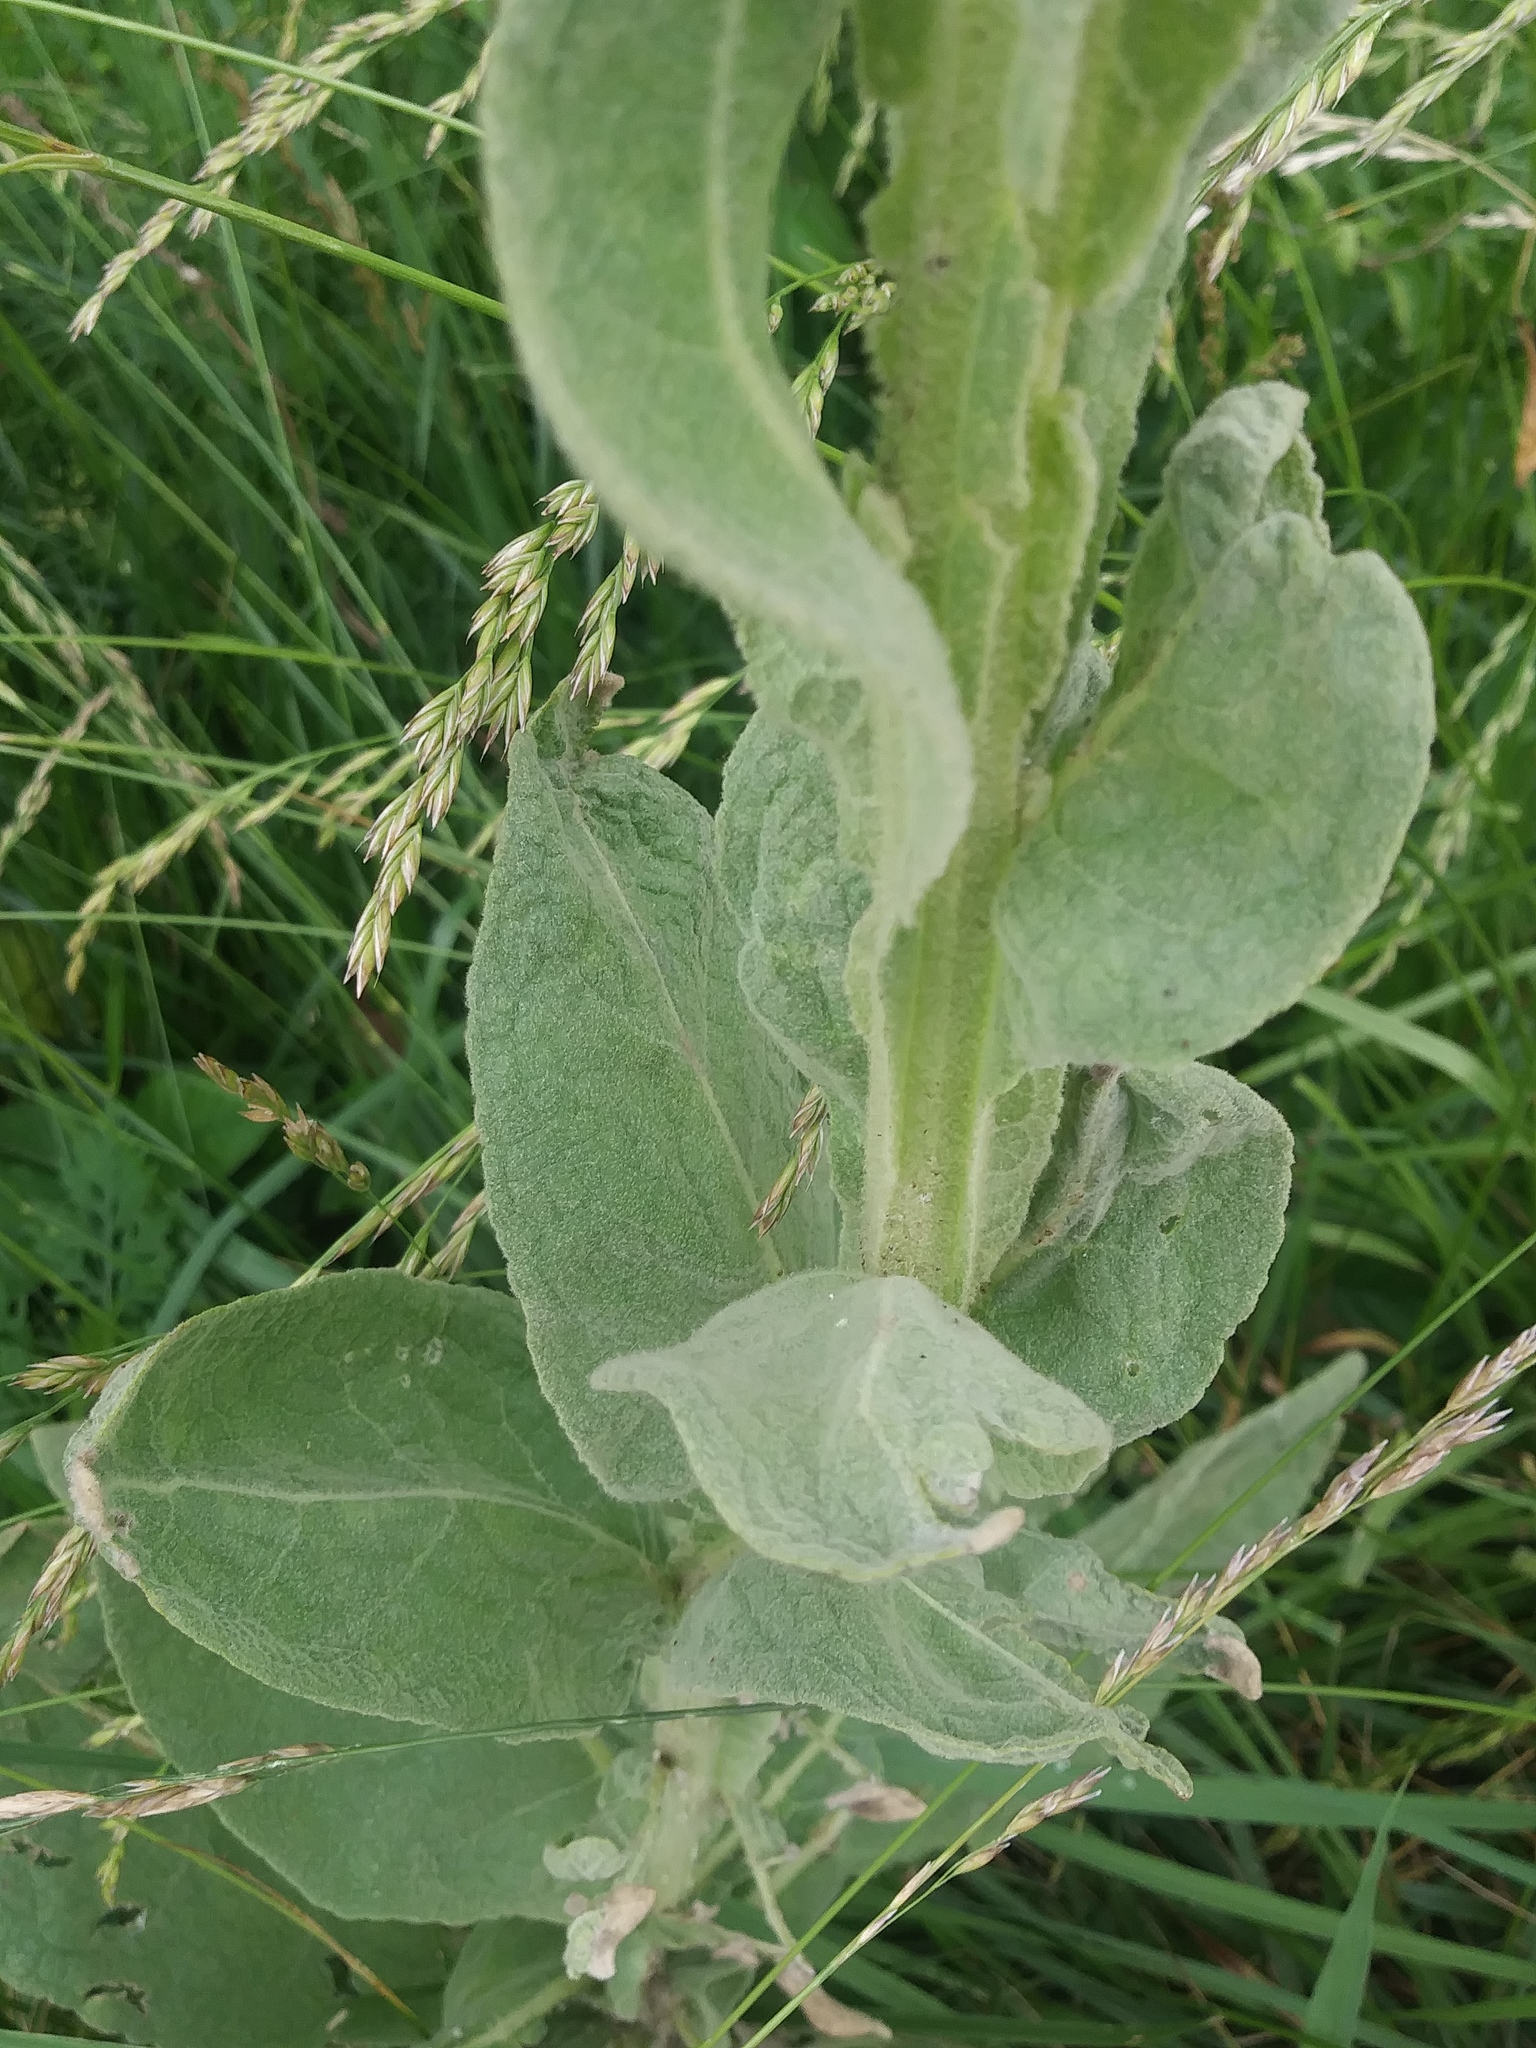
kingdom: Plantae
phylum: Tracheophyta
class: Magnoliopsida
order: Lamiales
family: Scrophulariaceae
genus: Verbascum
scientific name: Verbascum thapsus
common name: Common mullein
